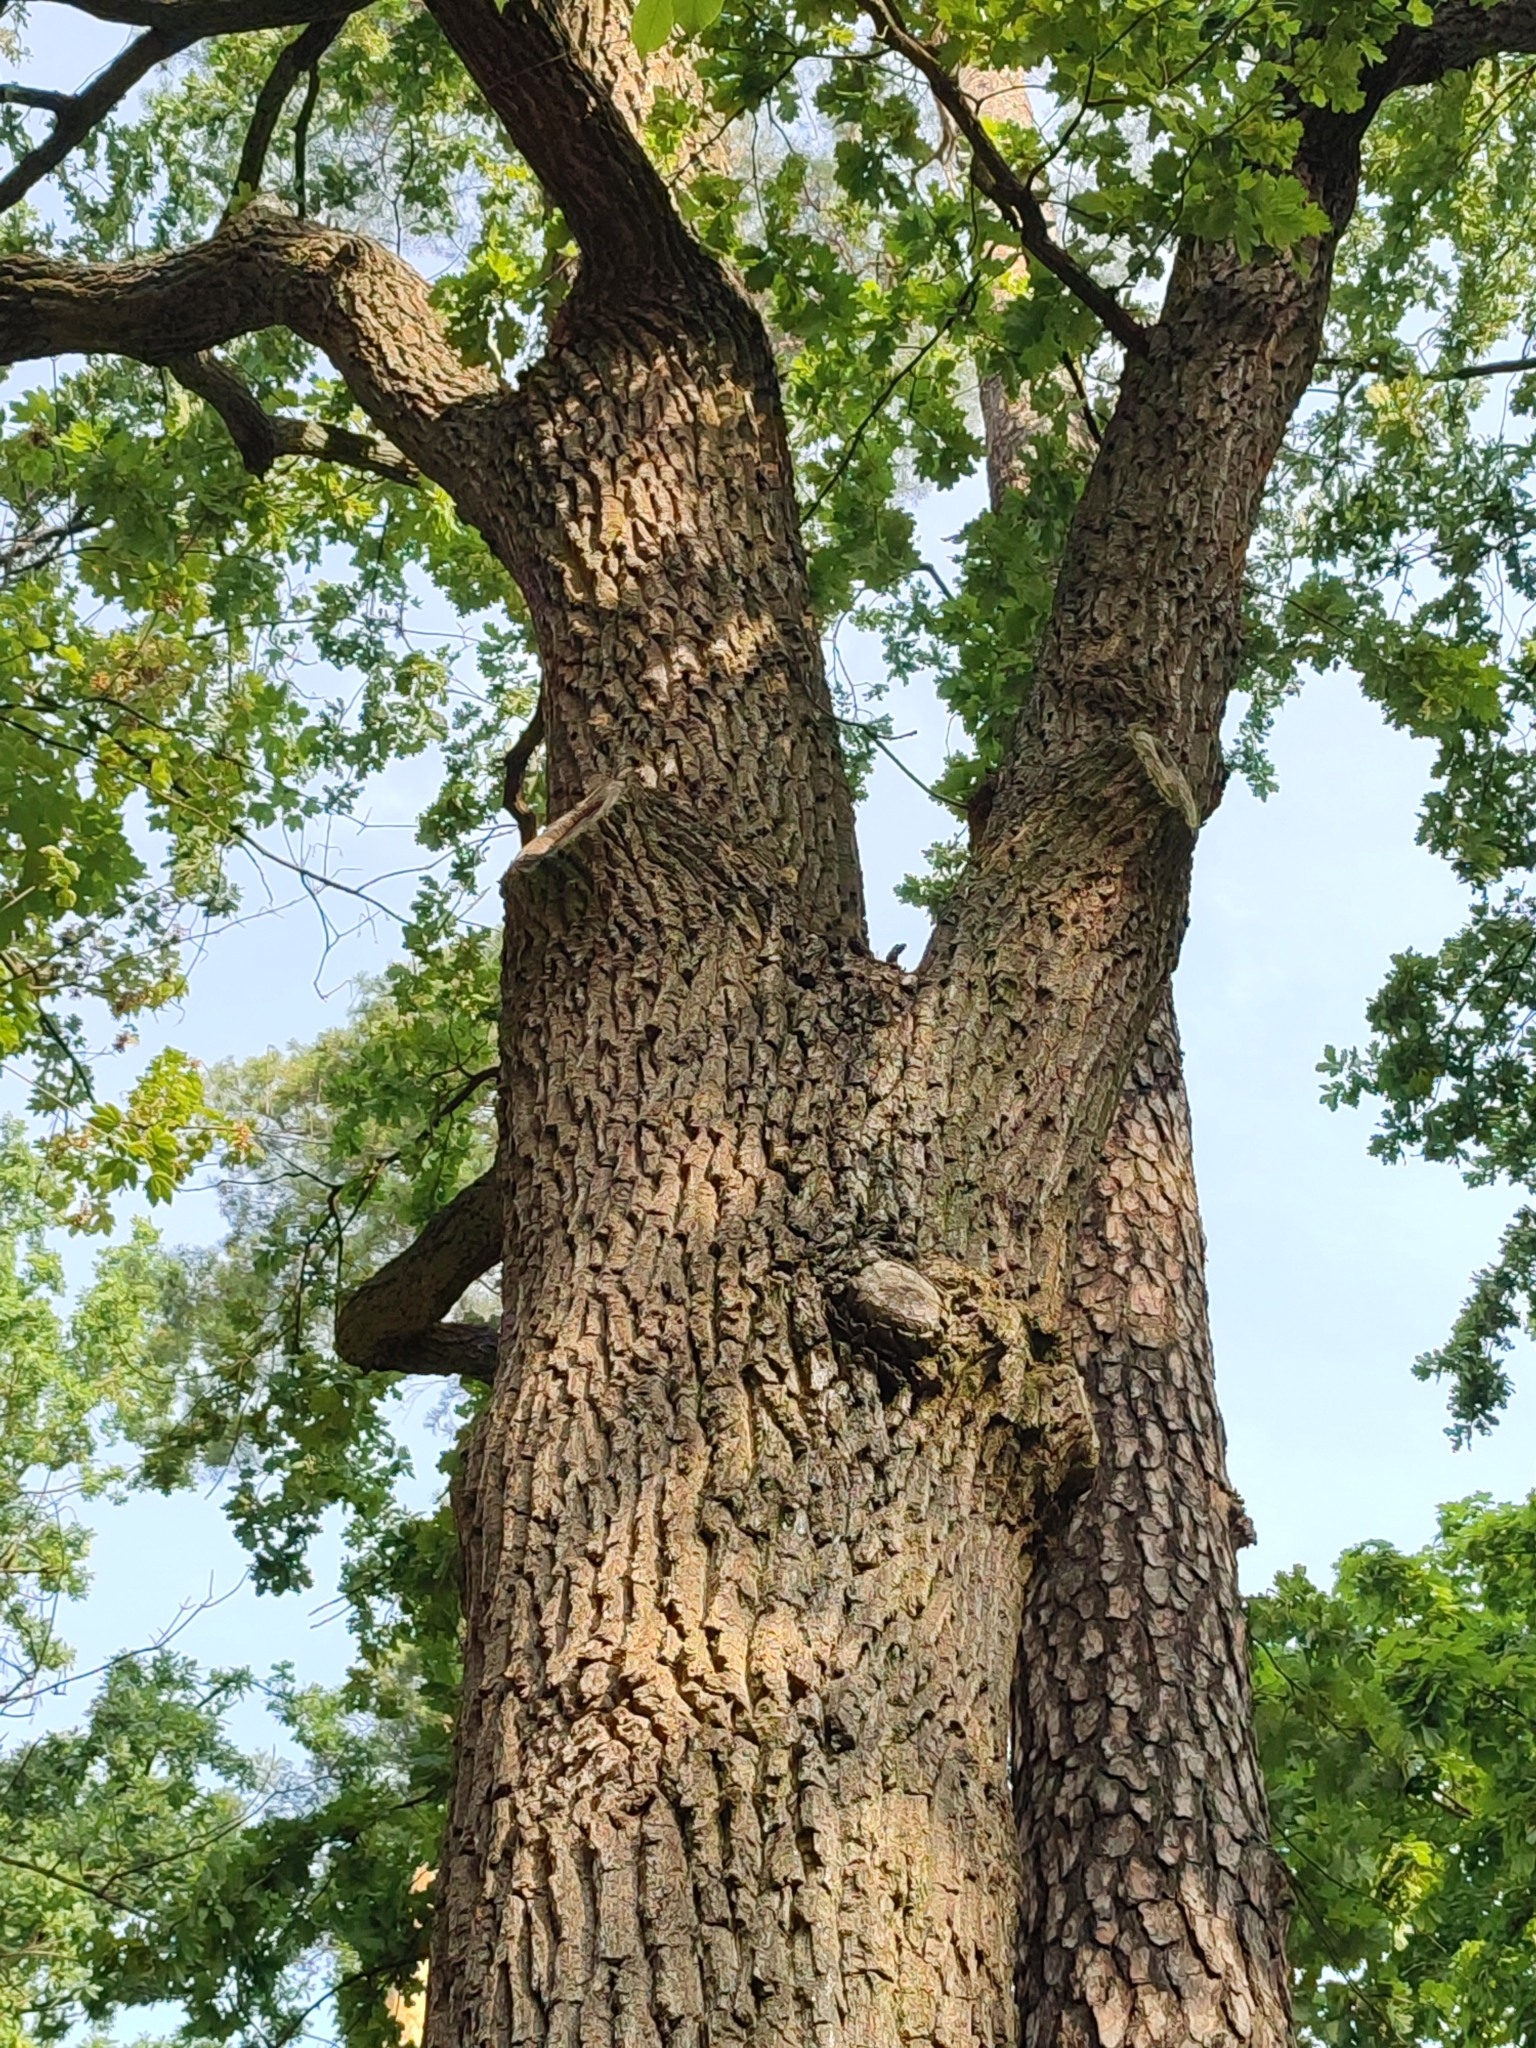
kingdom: Plantae
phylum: Tracheophyta
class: Magnoliopsida
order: Fagales
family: Fagaceae
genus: Quercus
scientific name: Quercus robur
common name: Pedunculate oak
